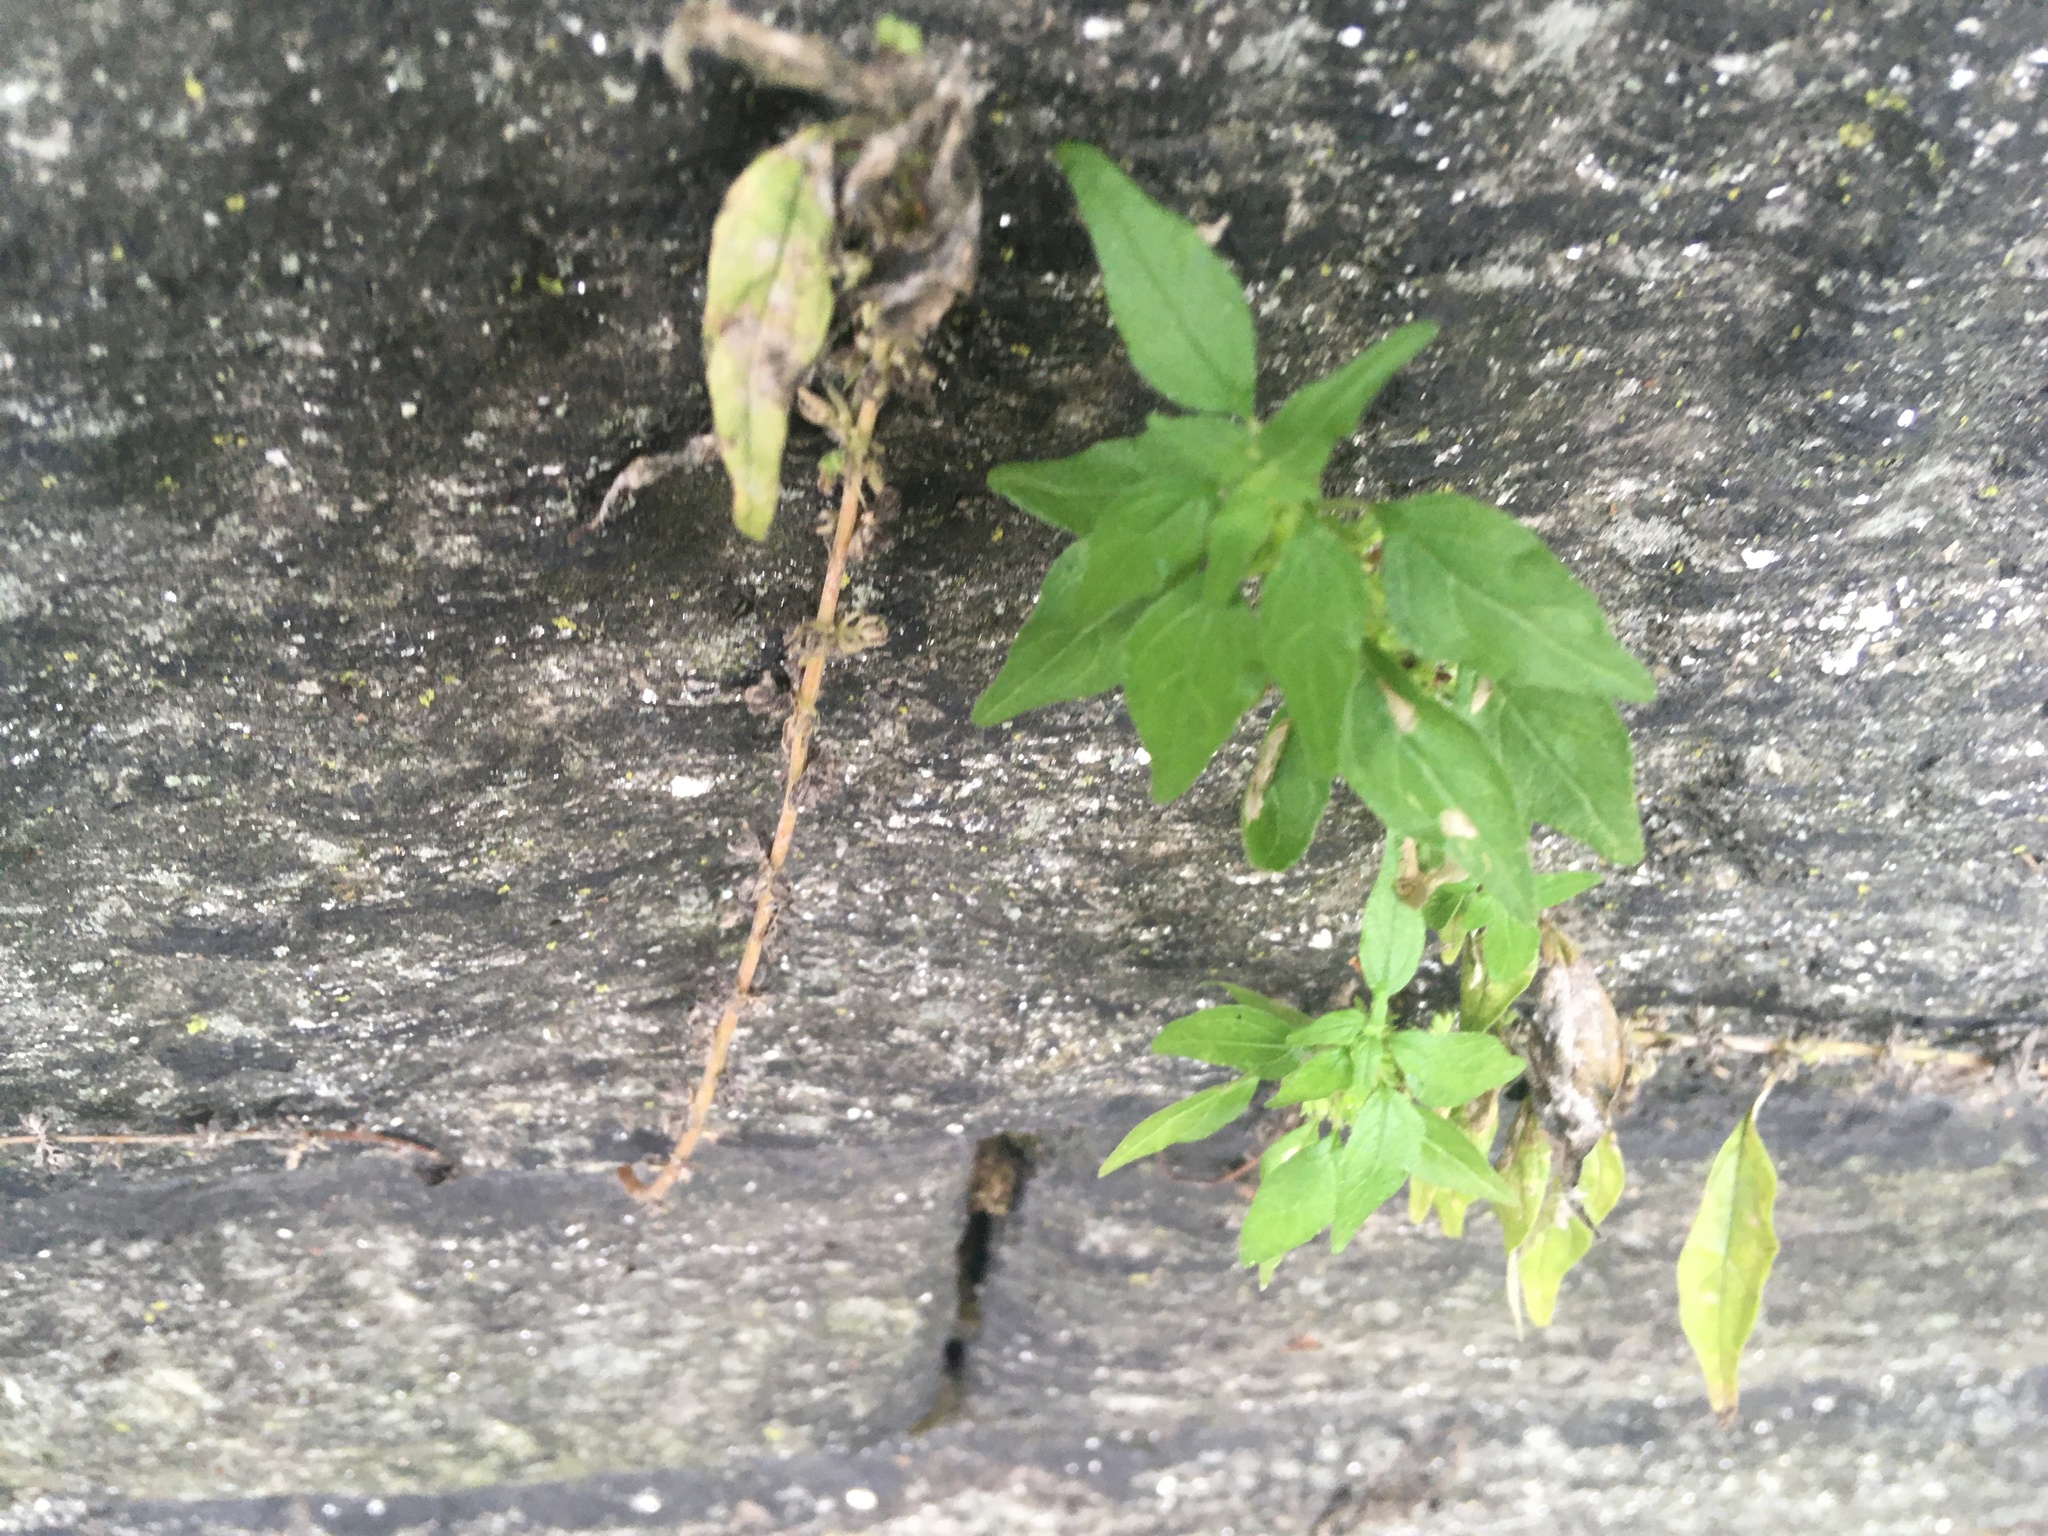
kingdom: Plantae
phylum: Tracheophyta
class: Magnoliopsida
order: Rosales
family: Urticaceae
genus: Parietaria
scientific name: Parietaria pensylvanica
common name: Pennsylvania pellitory
